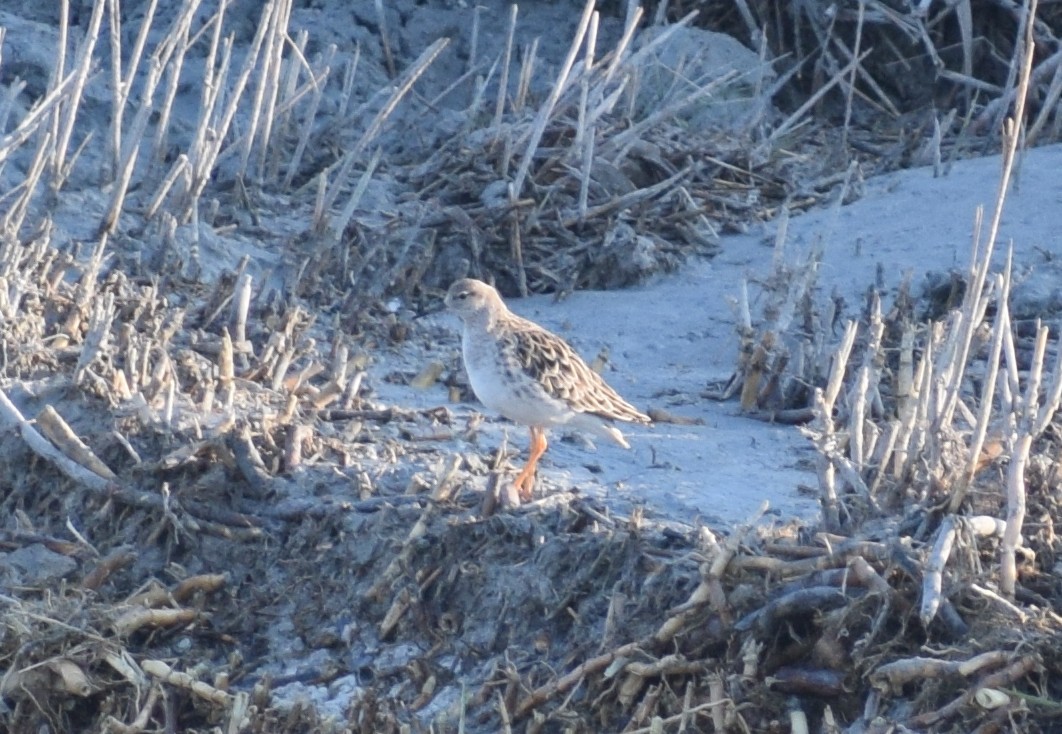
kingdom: Animalia
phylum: Chordata
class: Aves
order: Charadriiformes
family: Scolopacidae
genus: Calidris
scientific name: Calidris pugnax
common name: Ruff
